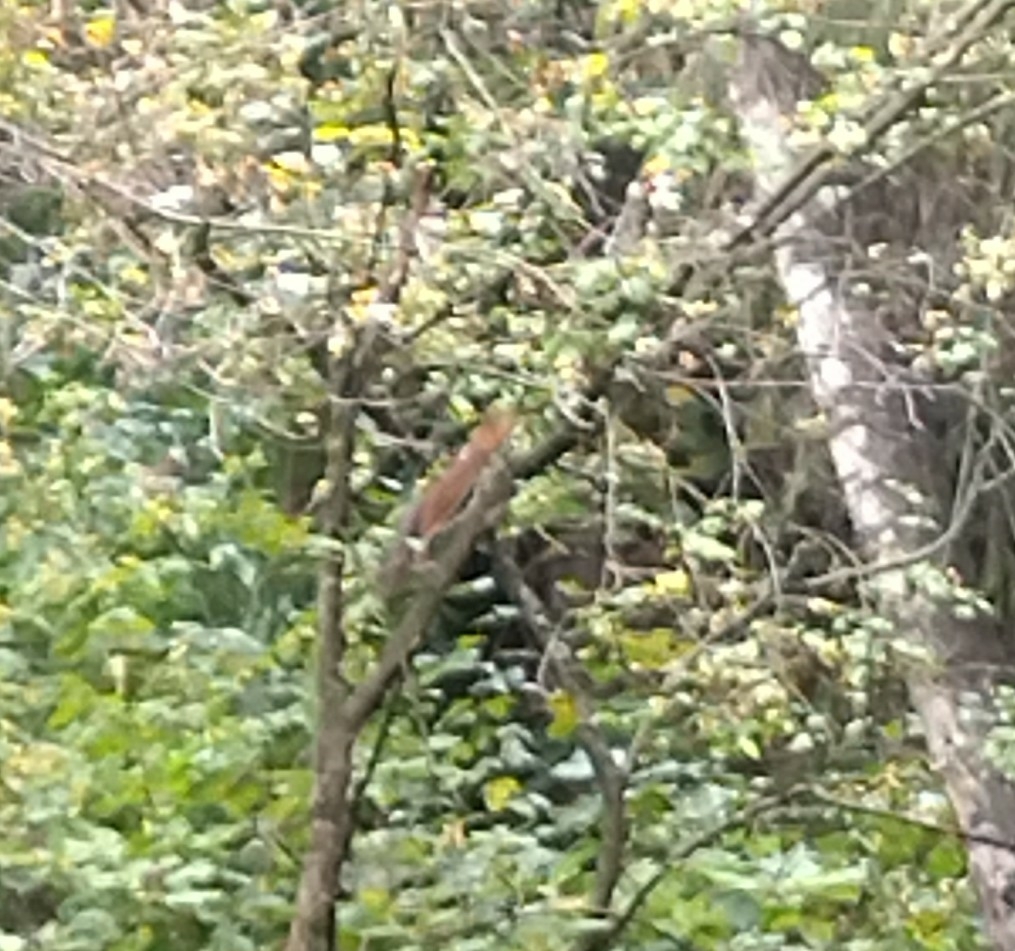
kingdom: Animalia
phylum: Chordata
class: Mammalia
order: Rodentia
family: Sciuridae
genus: Sciurus
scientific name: Sciurus vulgaris
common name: Eurasian red squirrel
